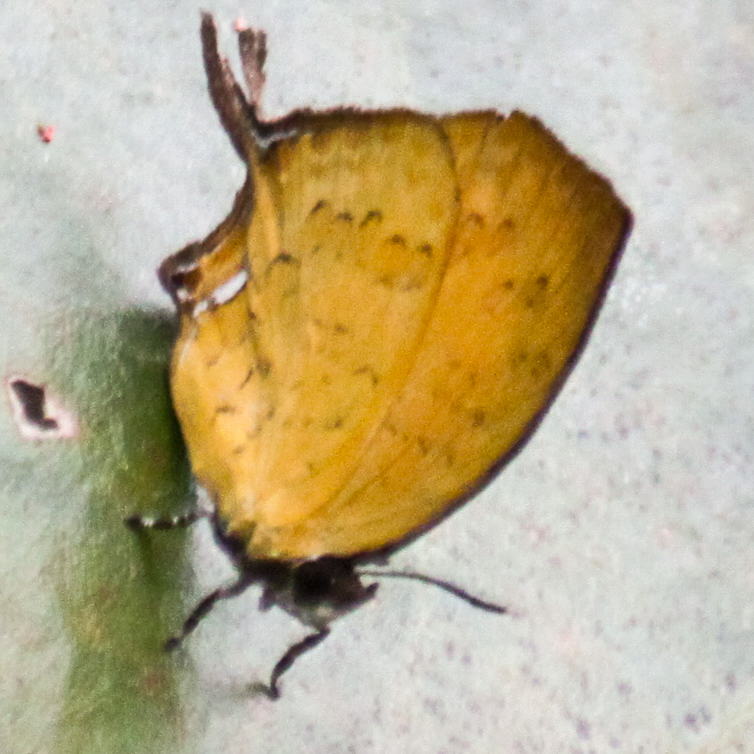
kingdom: Animalia
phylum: Arthropoda
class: Insecta
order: Lepidoptera
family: Lycaenidae
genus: Yasoda
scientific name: Yasoda tripunctata
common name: Branded yamfly
